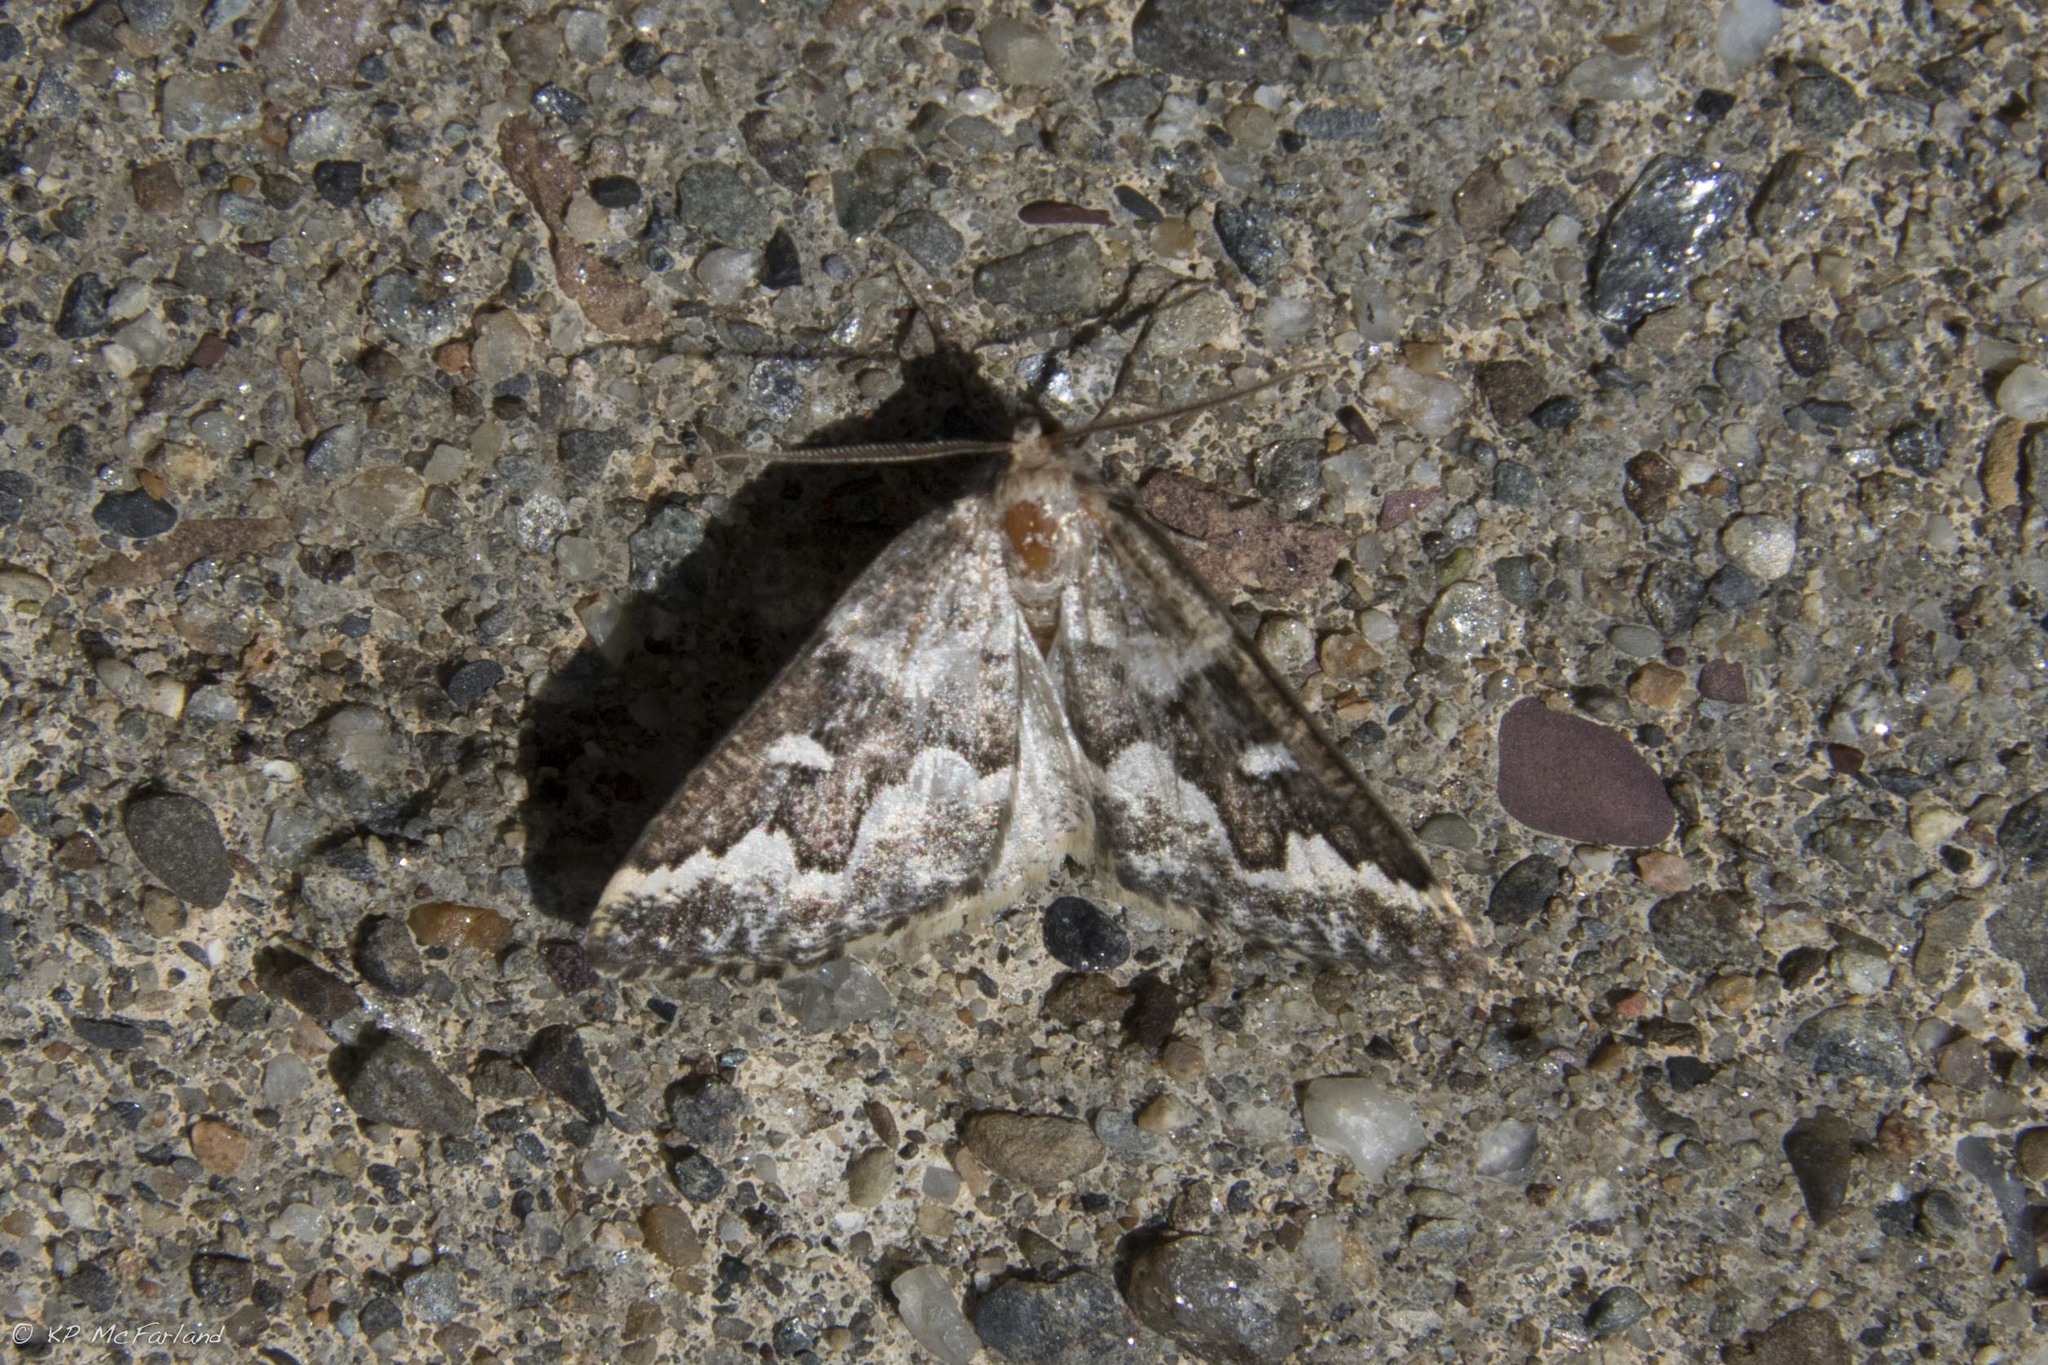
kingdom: Animalia
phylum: Arthropoda
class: Insecta
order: Lepidoptera
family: Geometridae
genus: Caripeta
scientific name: Caripeta divisata
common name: Gray spruce looper
